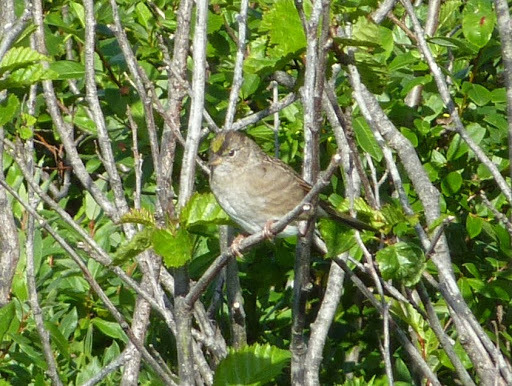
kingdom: Animalia
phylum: Chordata
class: Aves
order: Passeriformes
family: Passerellidae
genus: Zonotrichia
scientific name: Zonotrichia atricapilla
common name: Golden-crowned sparrow
